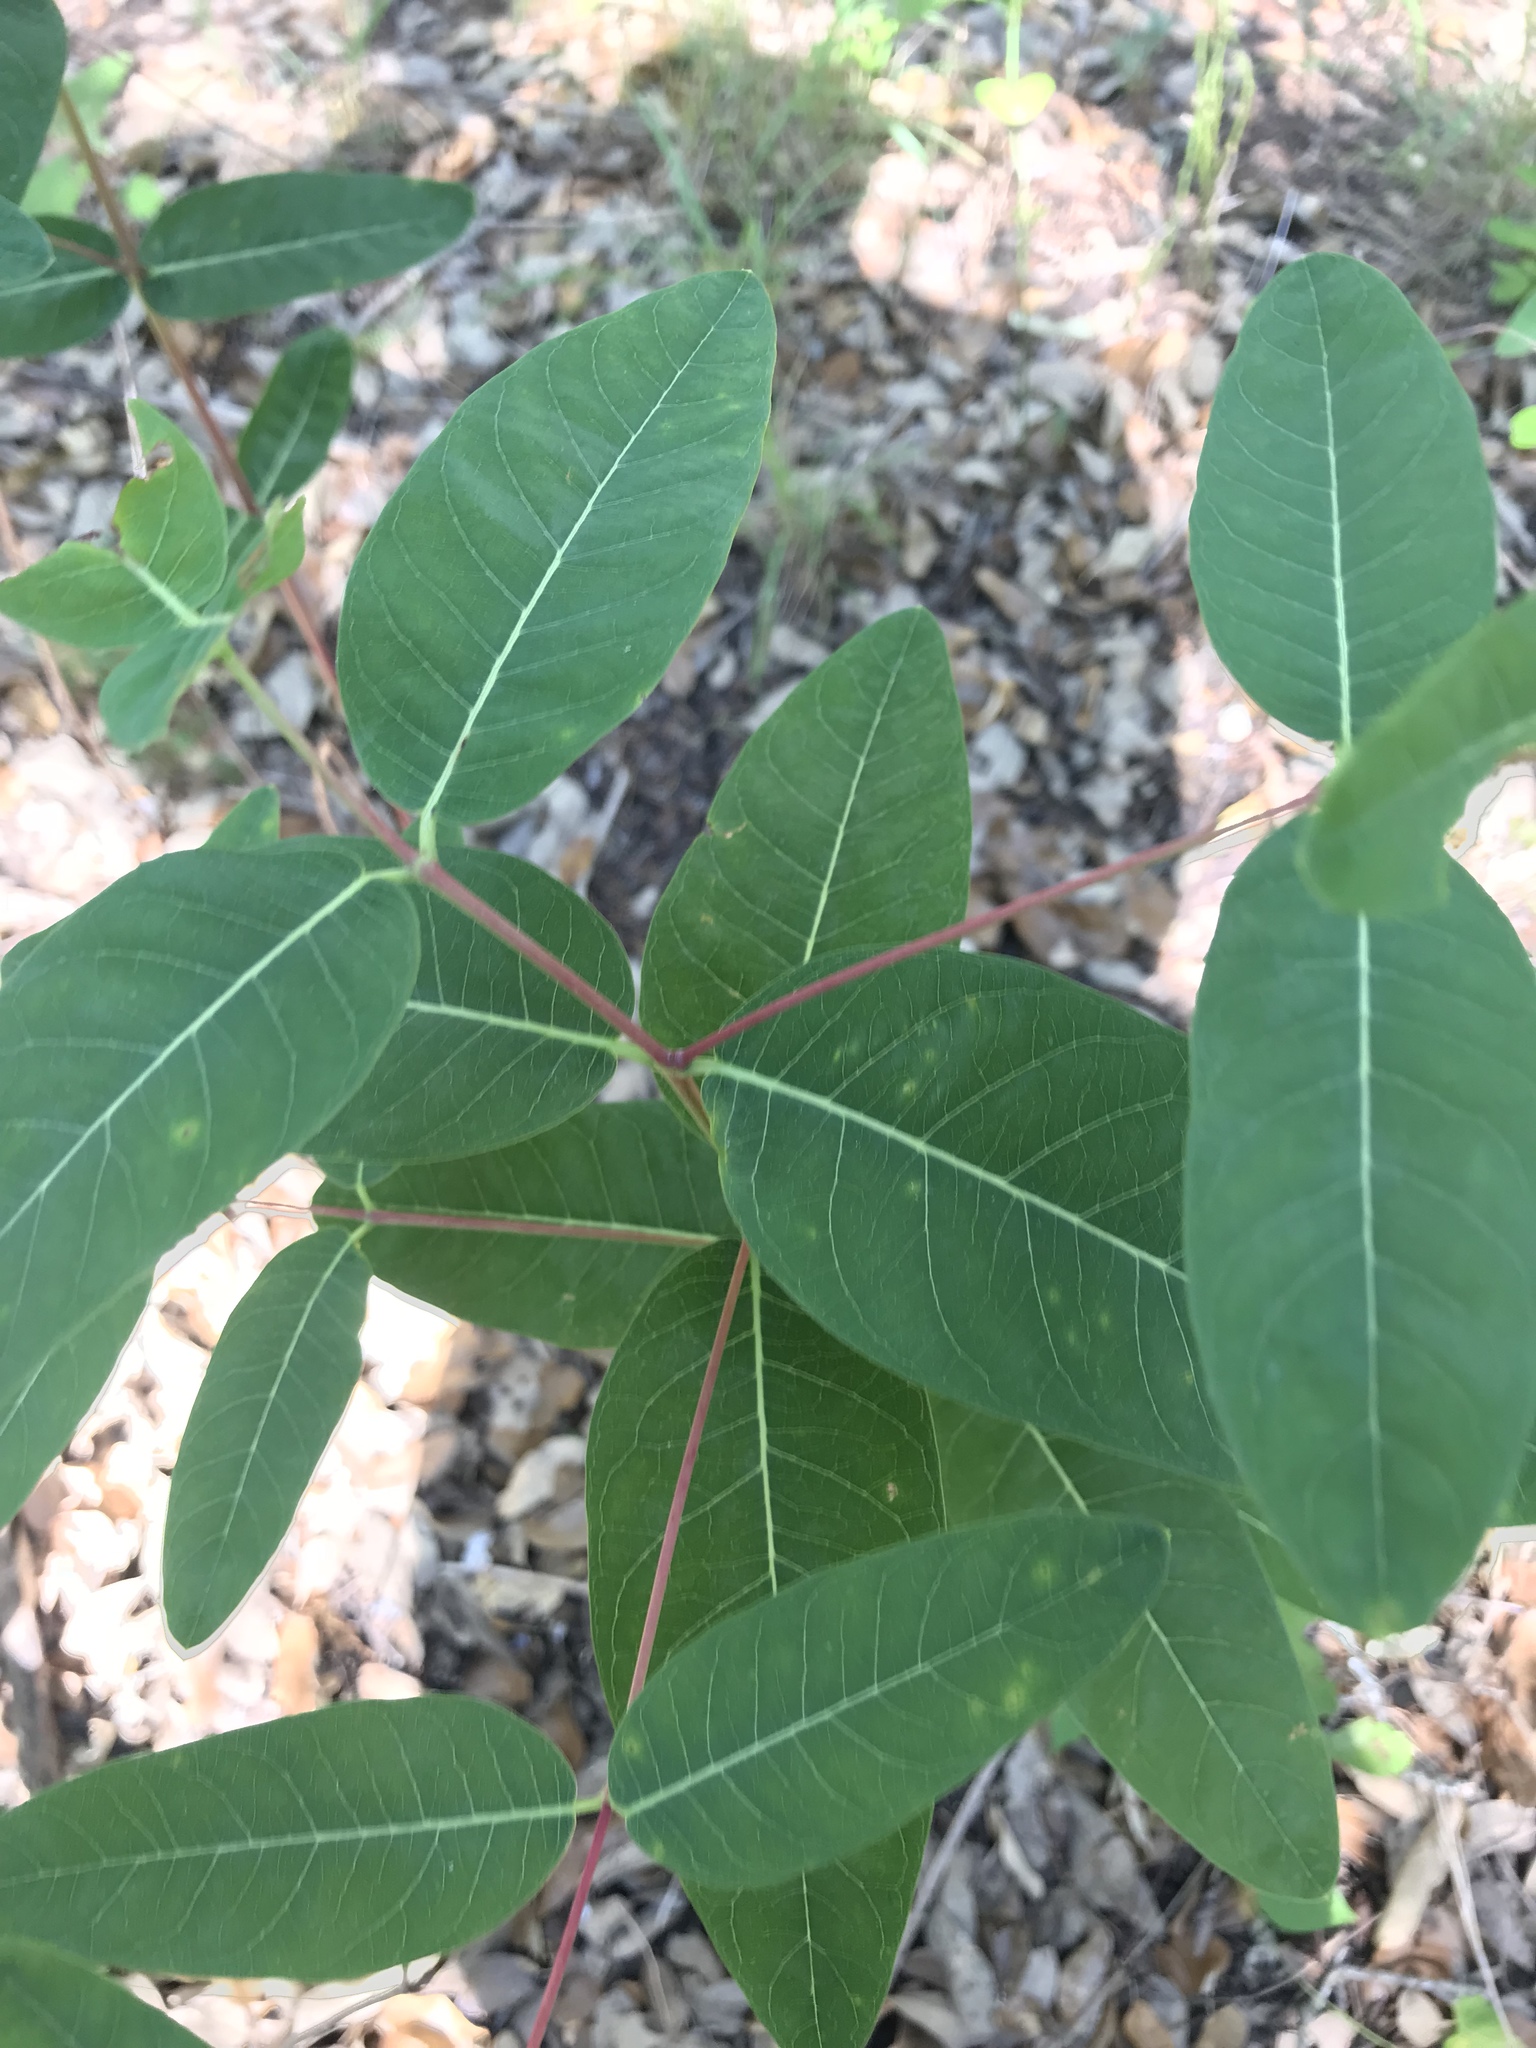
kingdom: Plantae
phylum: Tracheophyta
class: Magnoliopsida
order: Gentianales
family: Apocynaceae
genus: Apocynum
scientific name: Apocynum cannabinum
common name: Hemp dogbane
